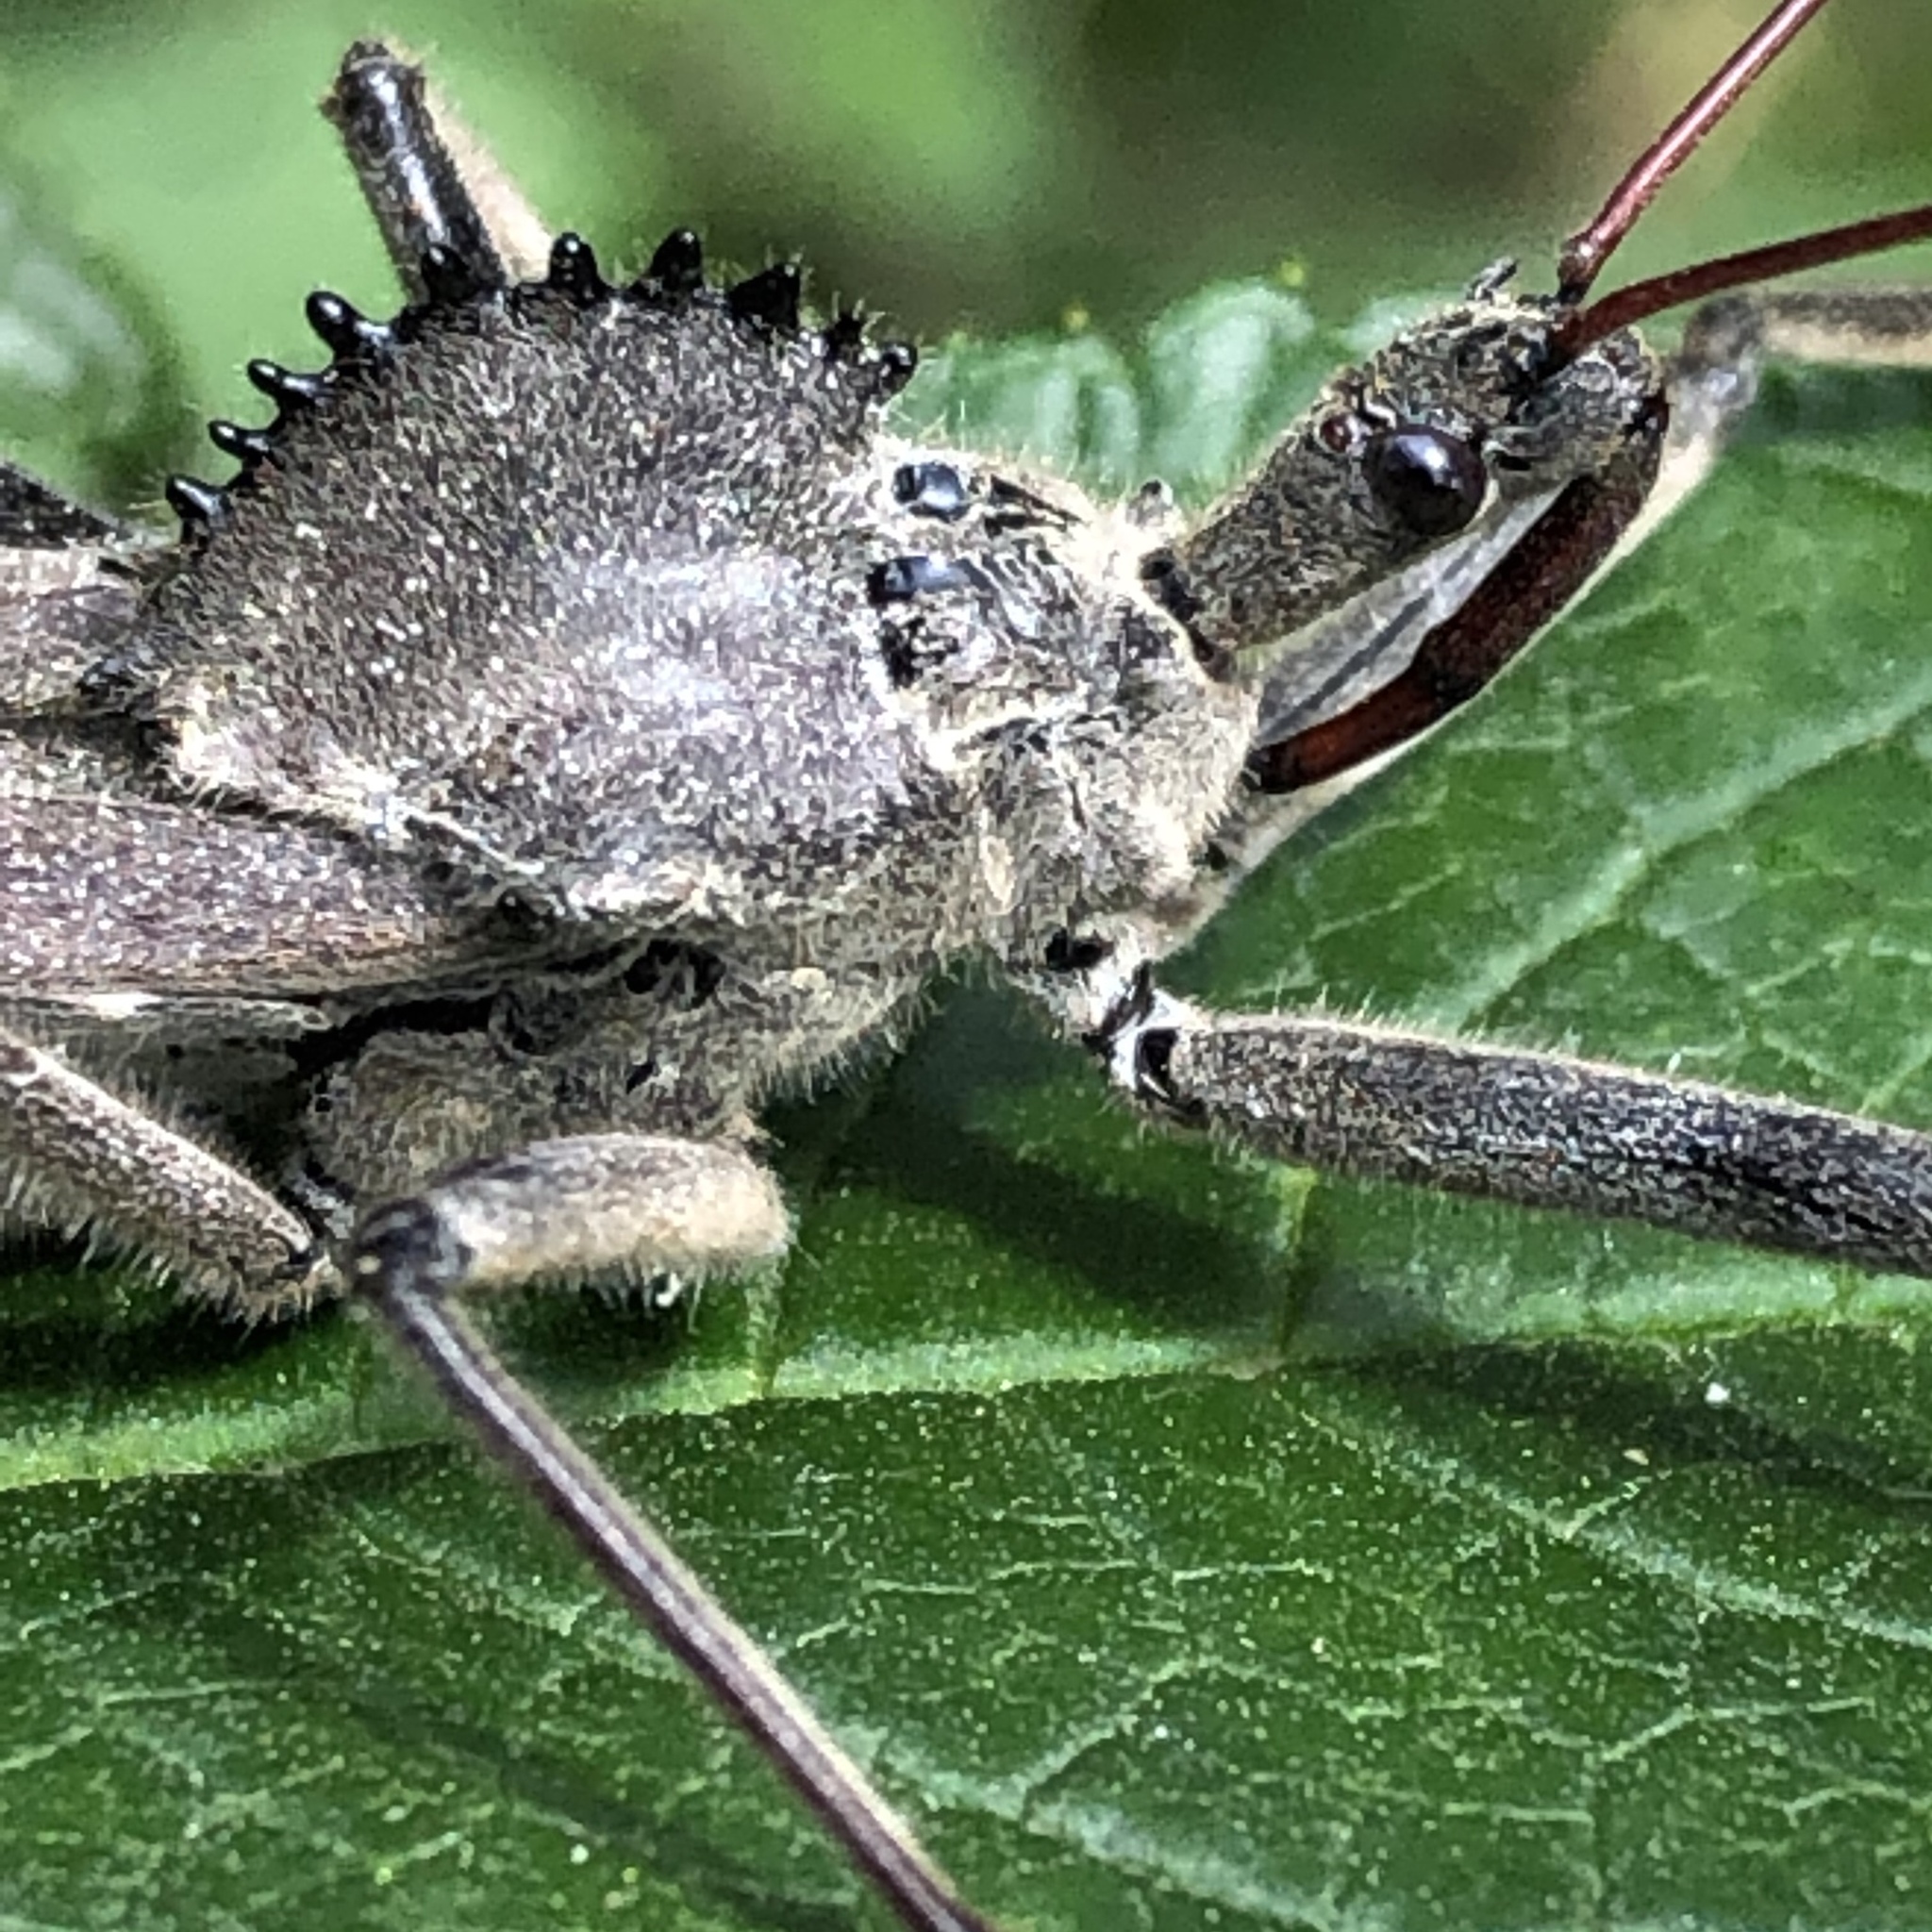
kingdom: Animalia
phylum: Arthropoda
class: Insecta
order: Hemiptera
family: Reduviidae
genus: Arilus
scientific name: Arilus cristatus
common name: North american wheel bug
